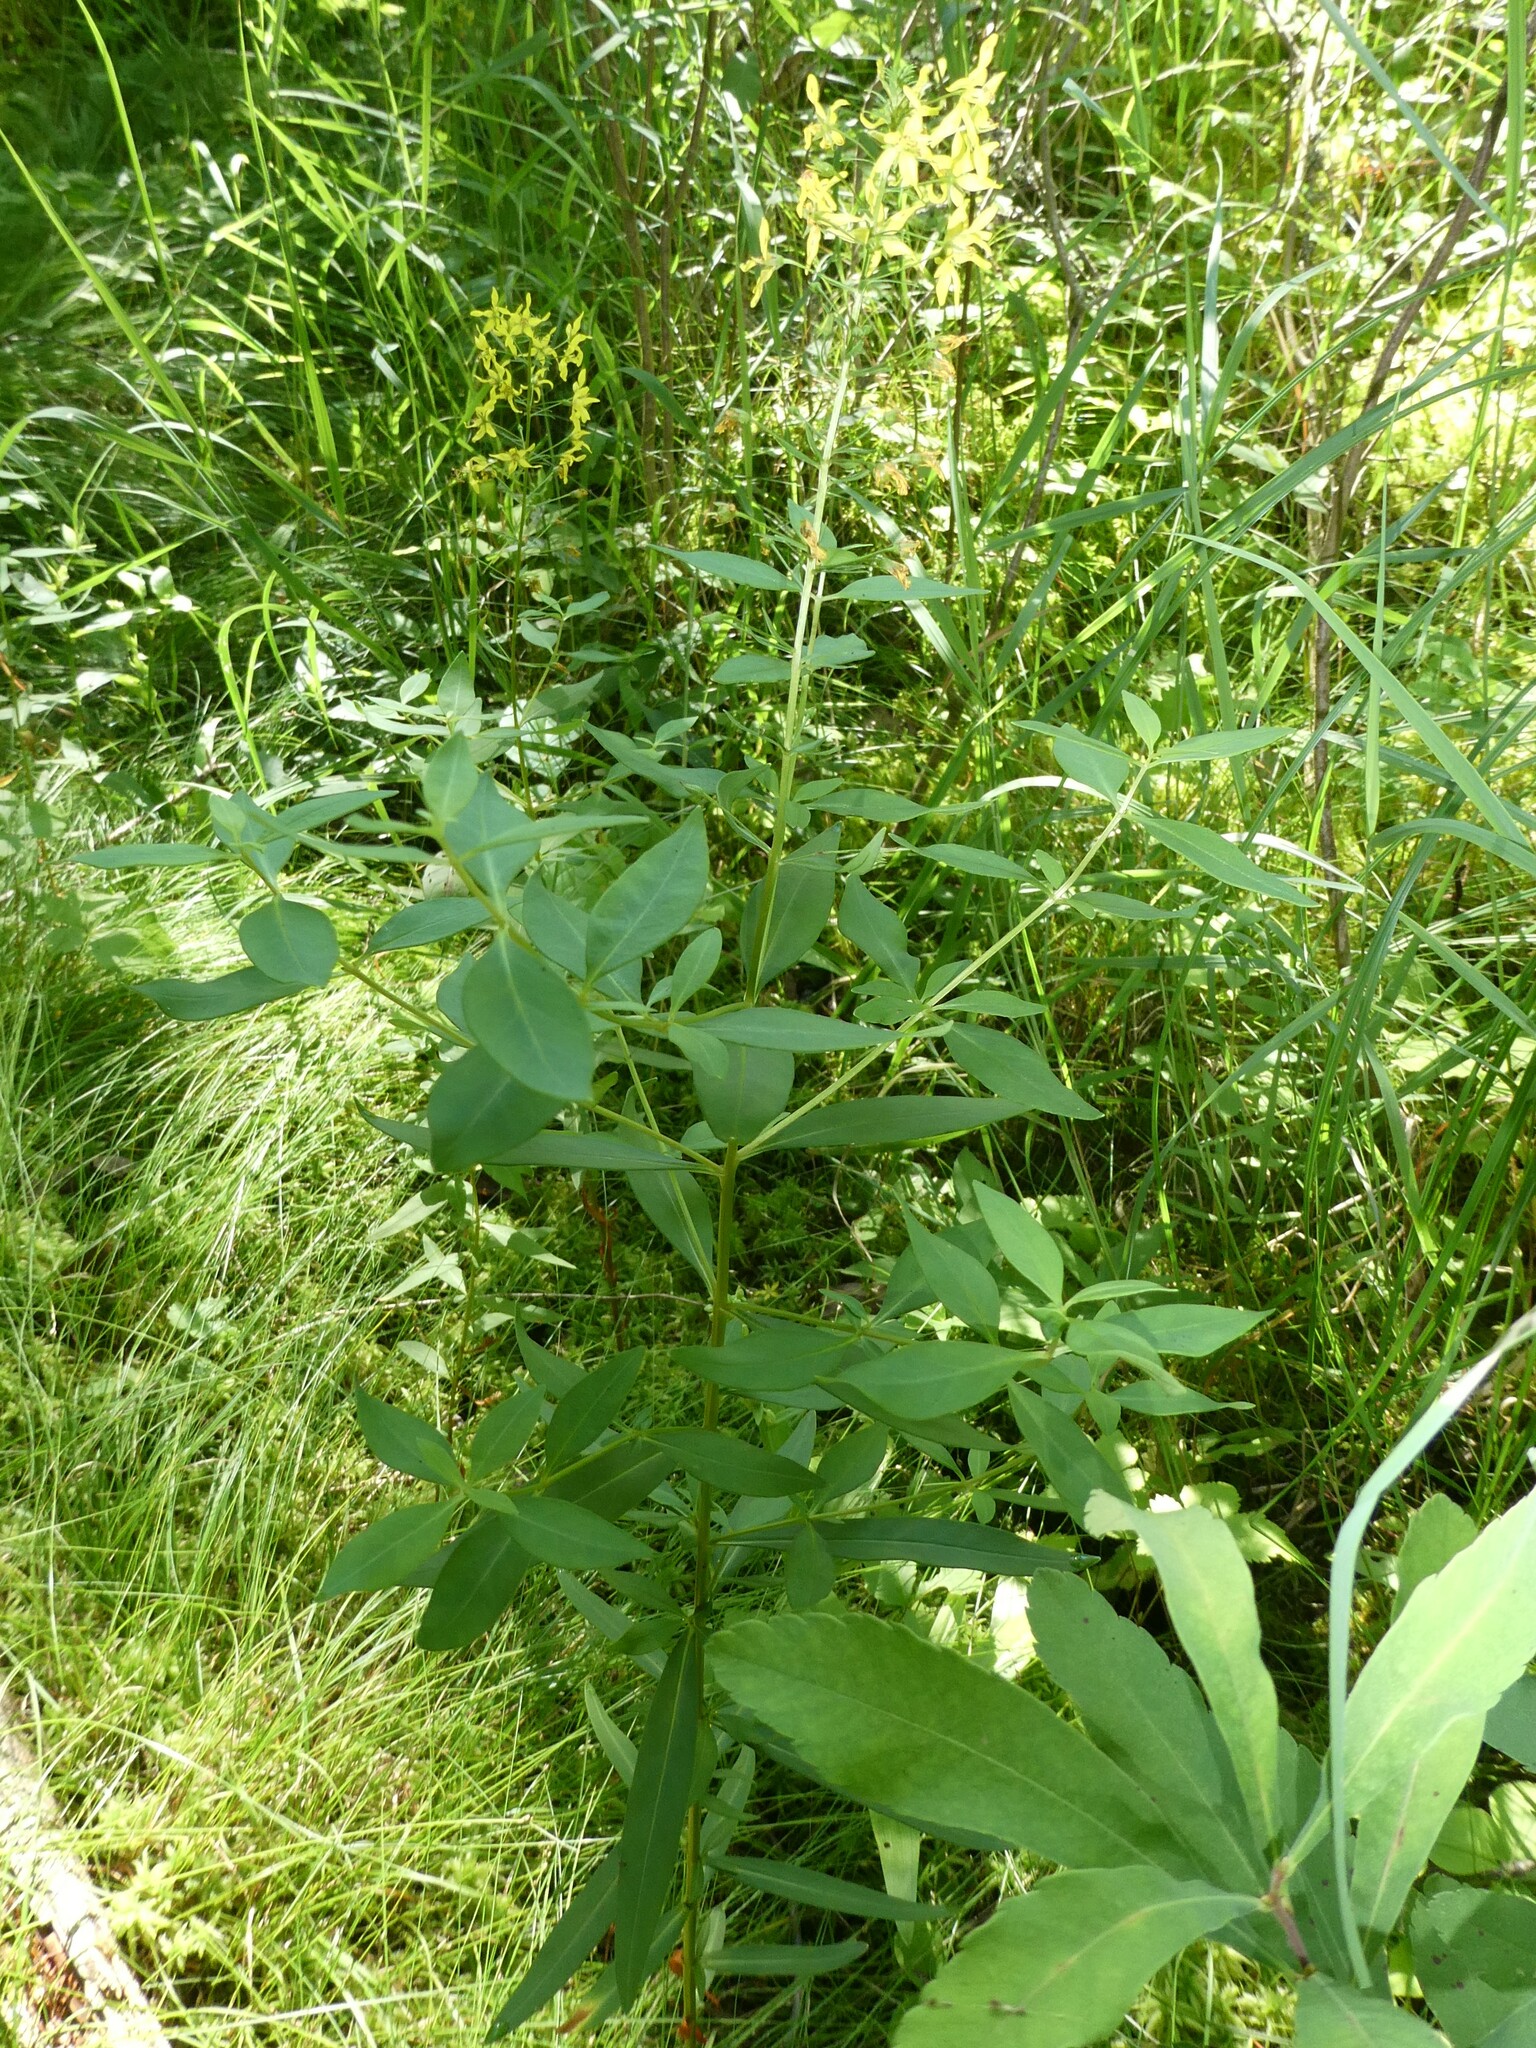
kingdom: Plantae
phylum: Tracheophyta
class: Magnoliopsida
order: Ericales
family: Primulaceae
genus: Lysimachia
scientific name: Lysimachia terrestris
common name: Lake loosestrife
